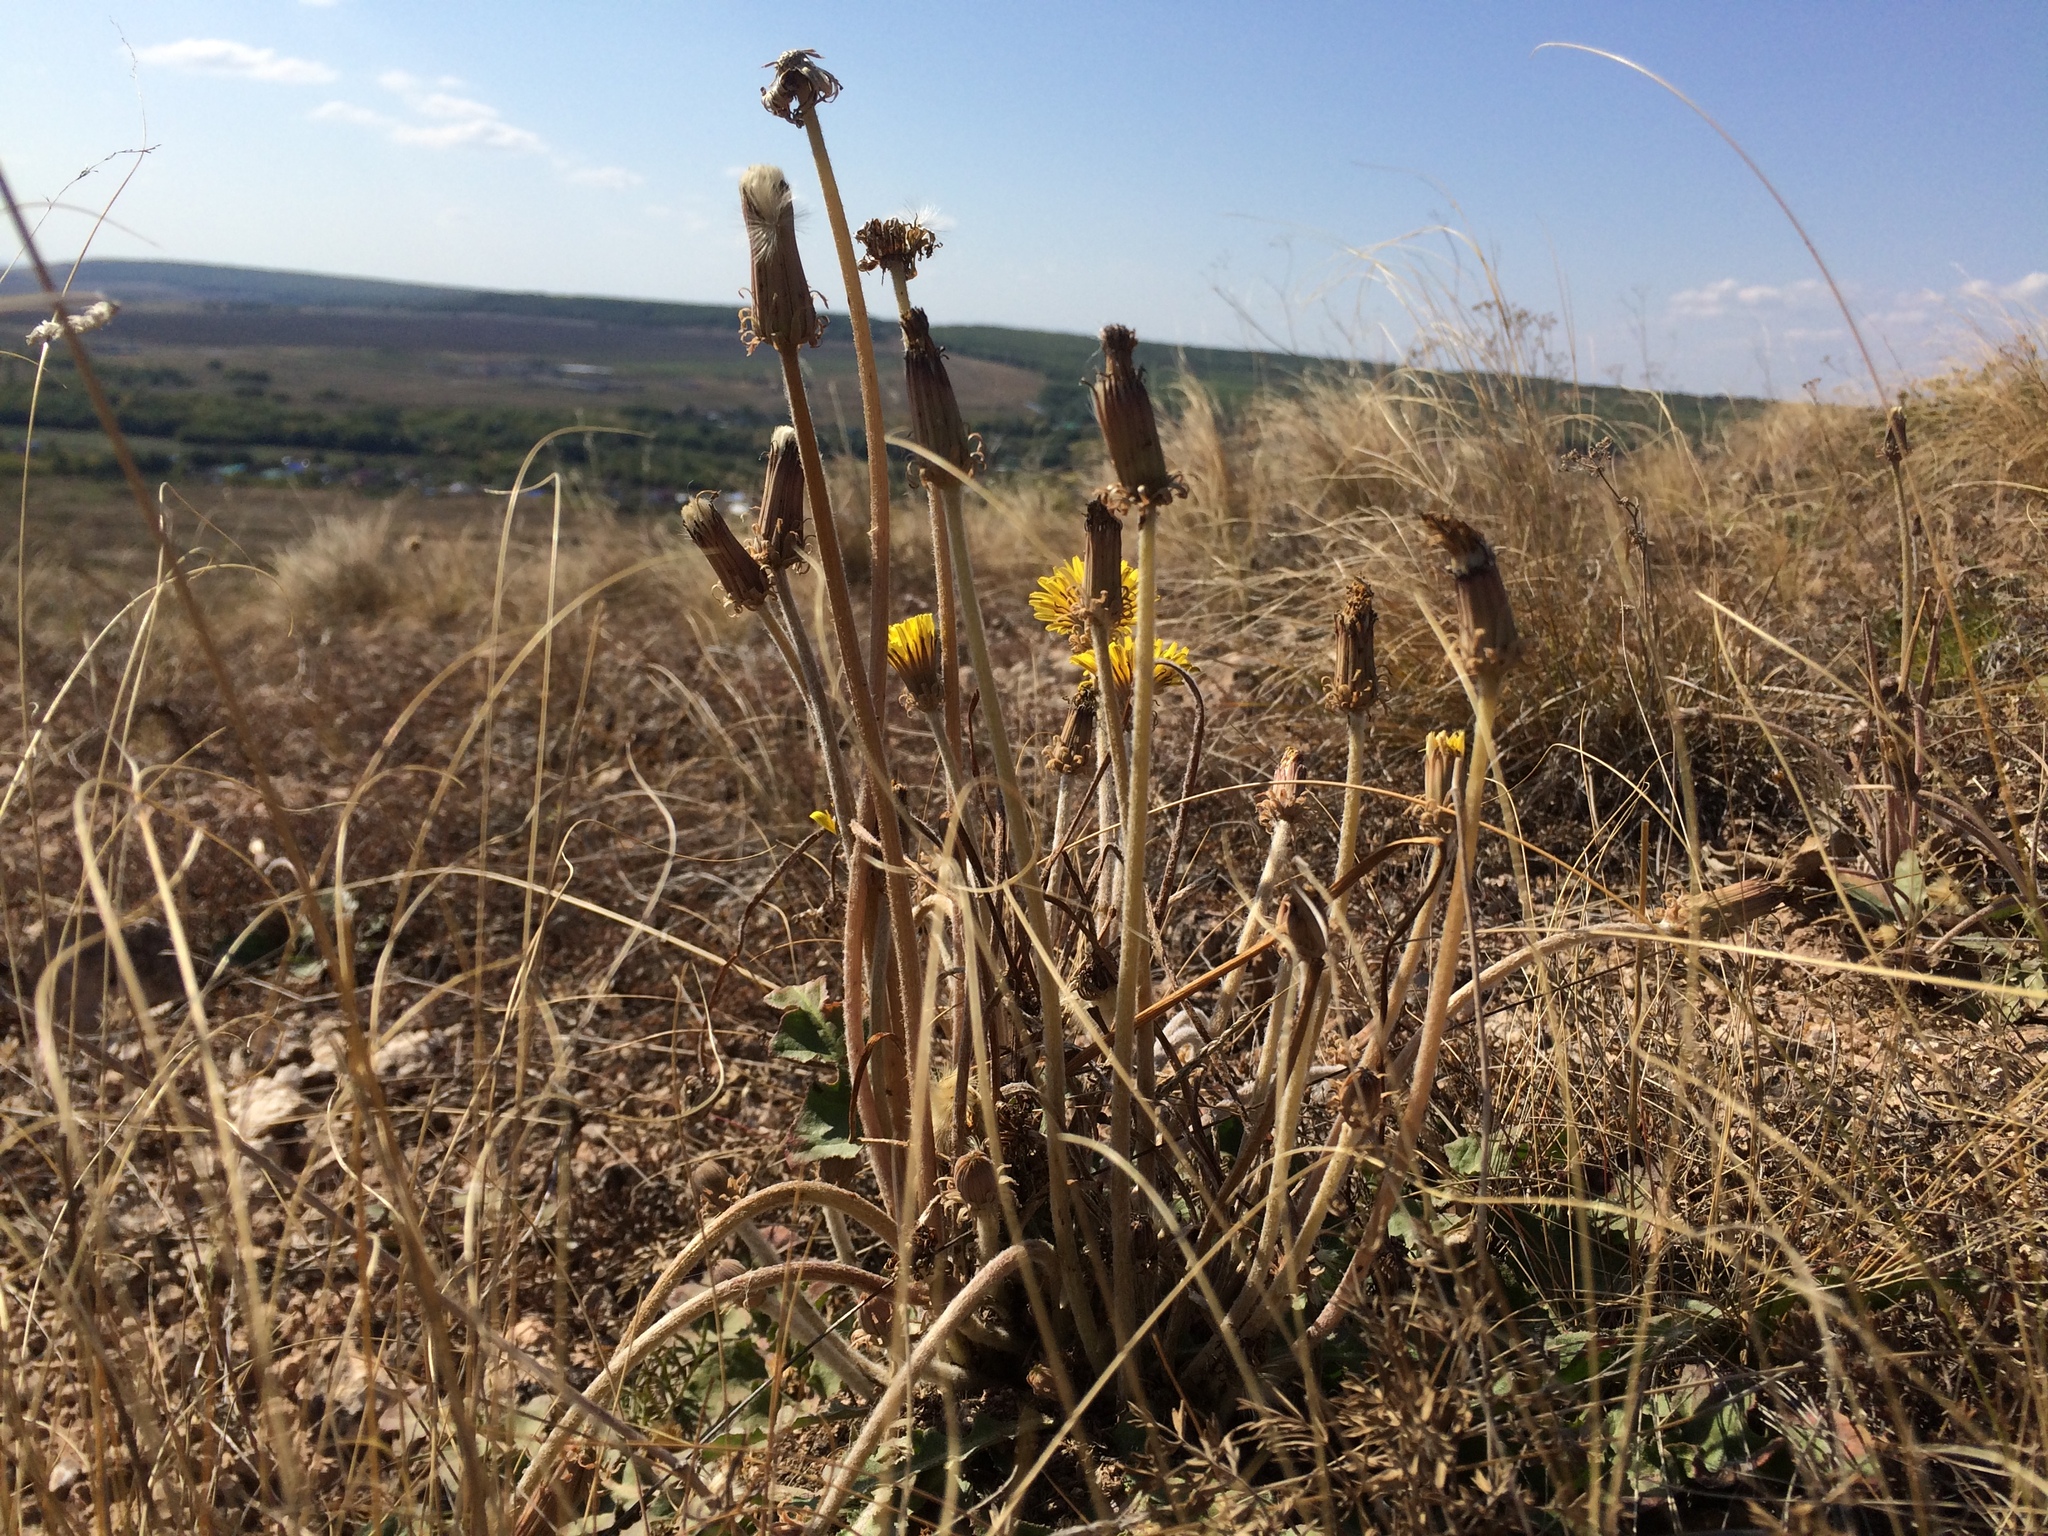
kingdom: Plantae
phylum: Tracheophyta
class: Magnoliopsida
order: Asterales
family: Asteraceae
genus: Taraxacum
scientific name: Taraxacum serotinum
